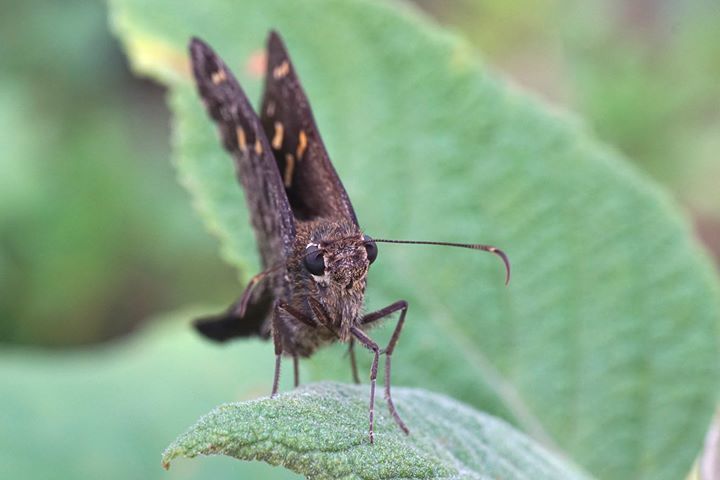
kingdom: Animalia
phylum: Arthropoda
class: Insecta
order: Lepidoptera
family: Hesperiidae
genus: Thorybes
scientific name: Thorybes
